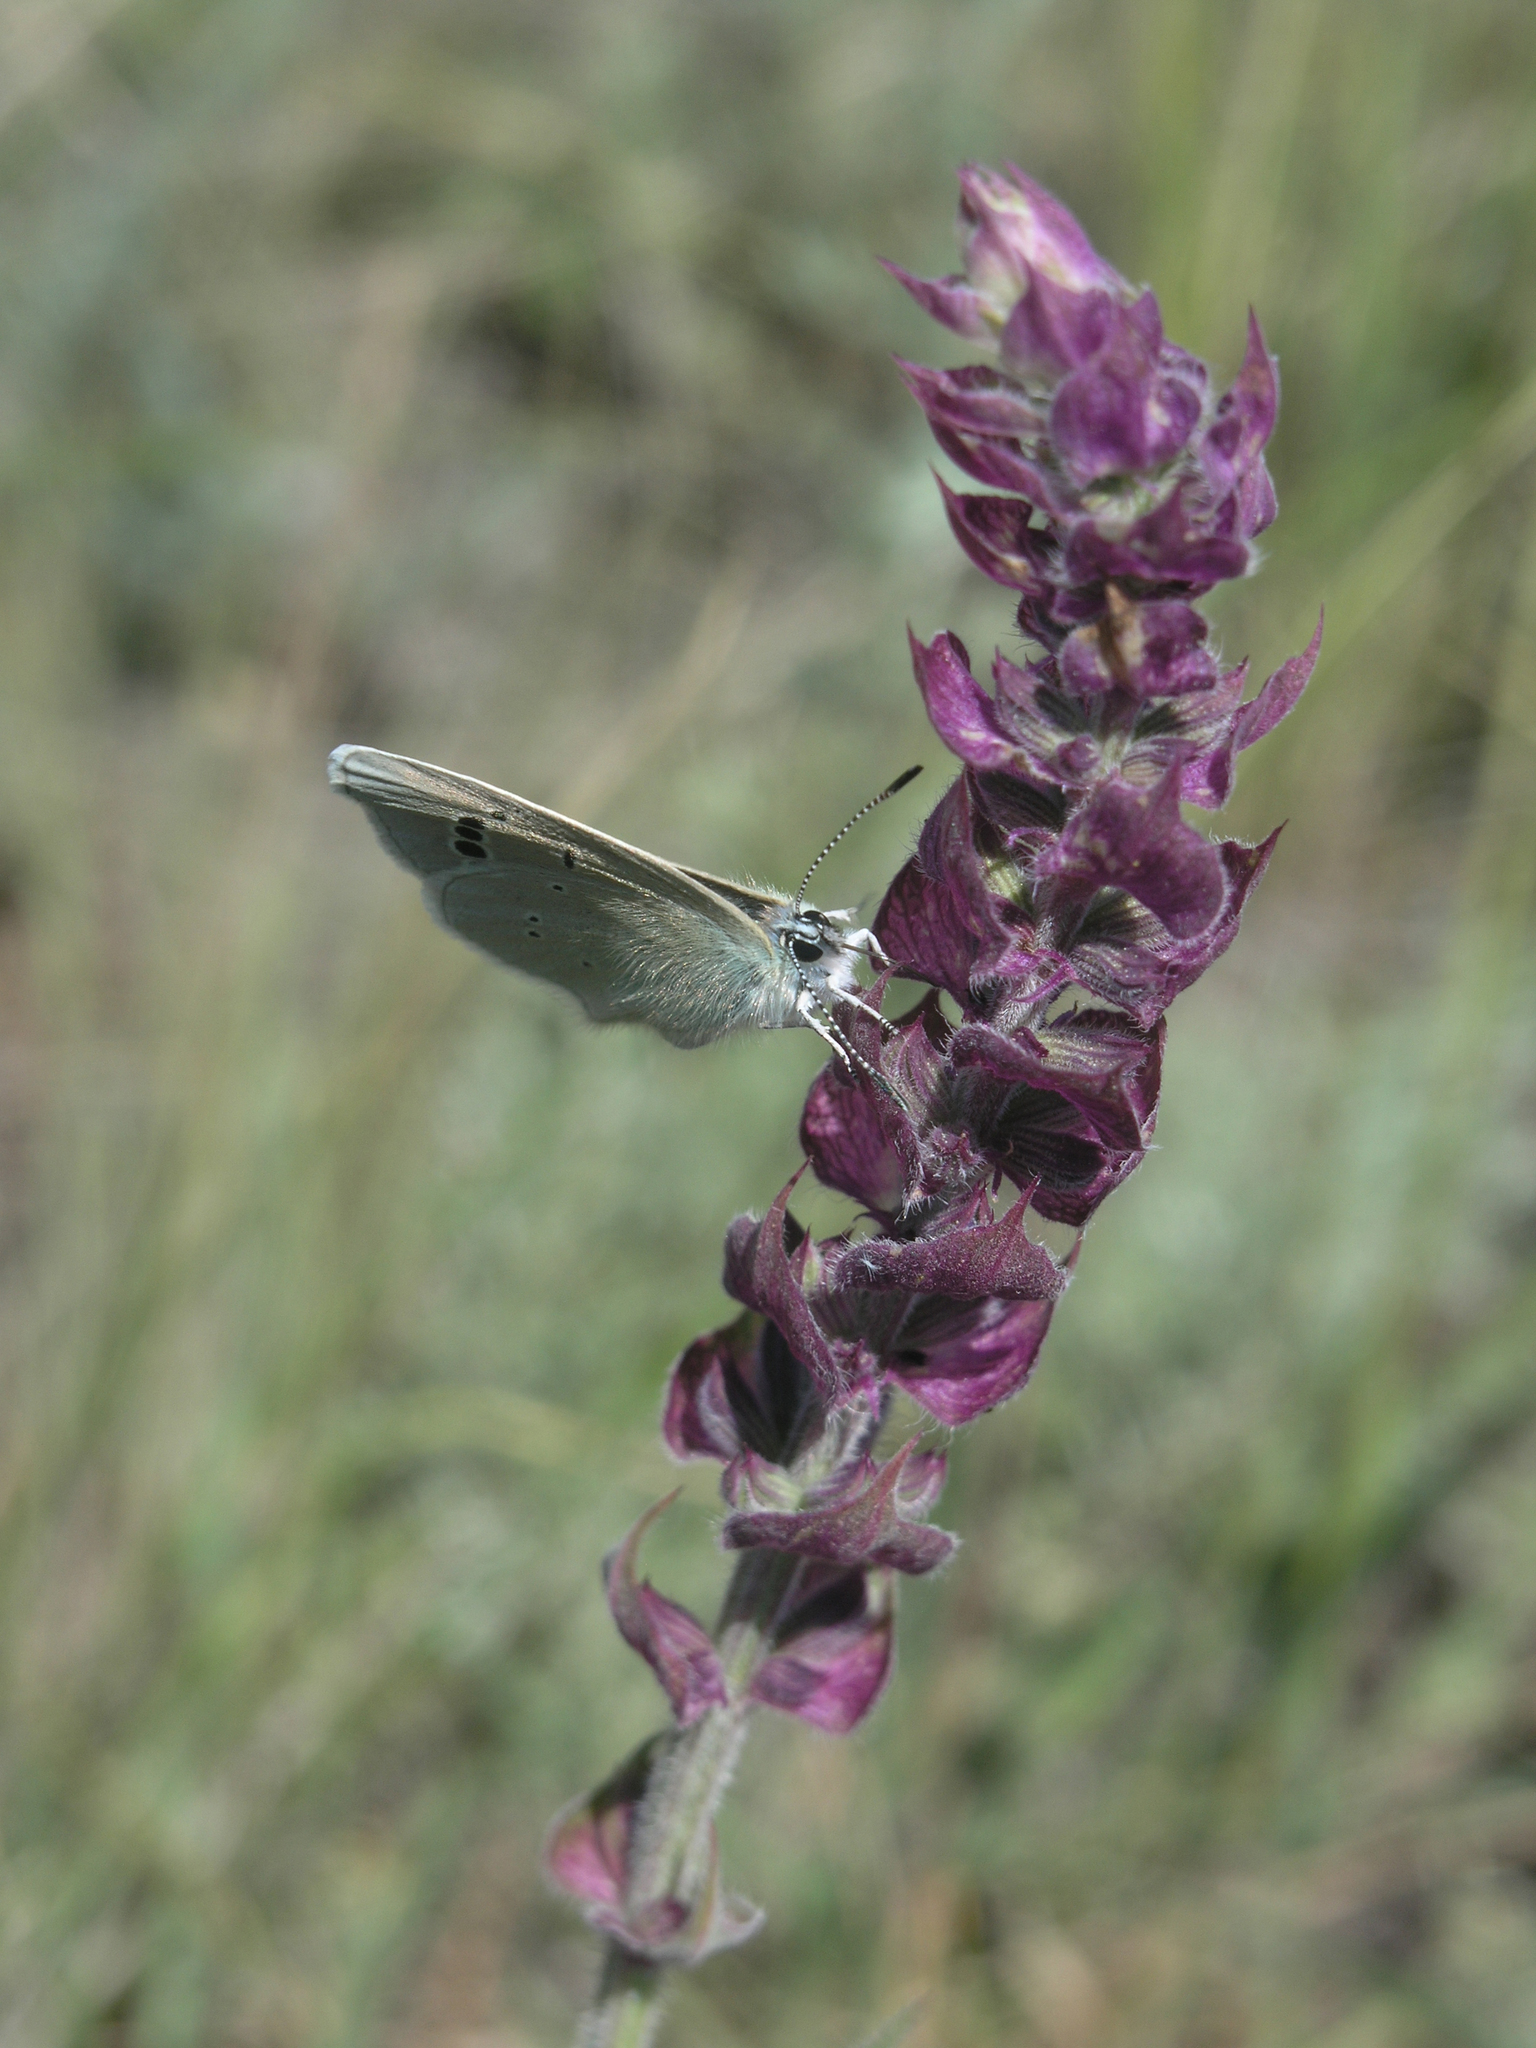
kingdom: Animalia
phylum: Arthropoda
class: Insecta
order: Lepidoptera
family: Lycaenidae
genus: Glaucopsyche
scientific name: Glaucopsyche alexis
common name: Green-underside blue
